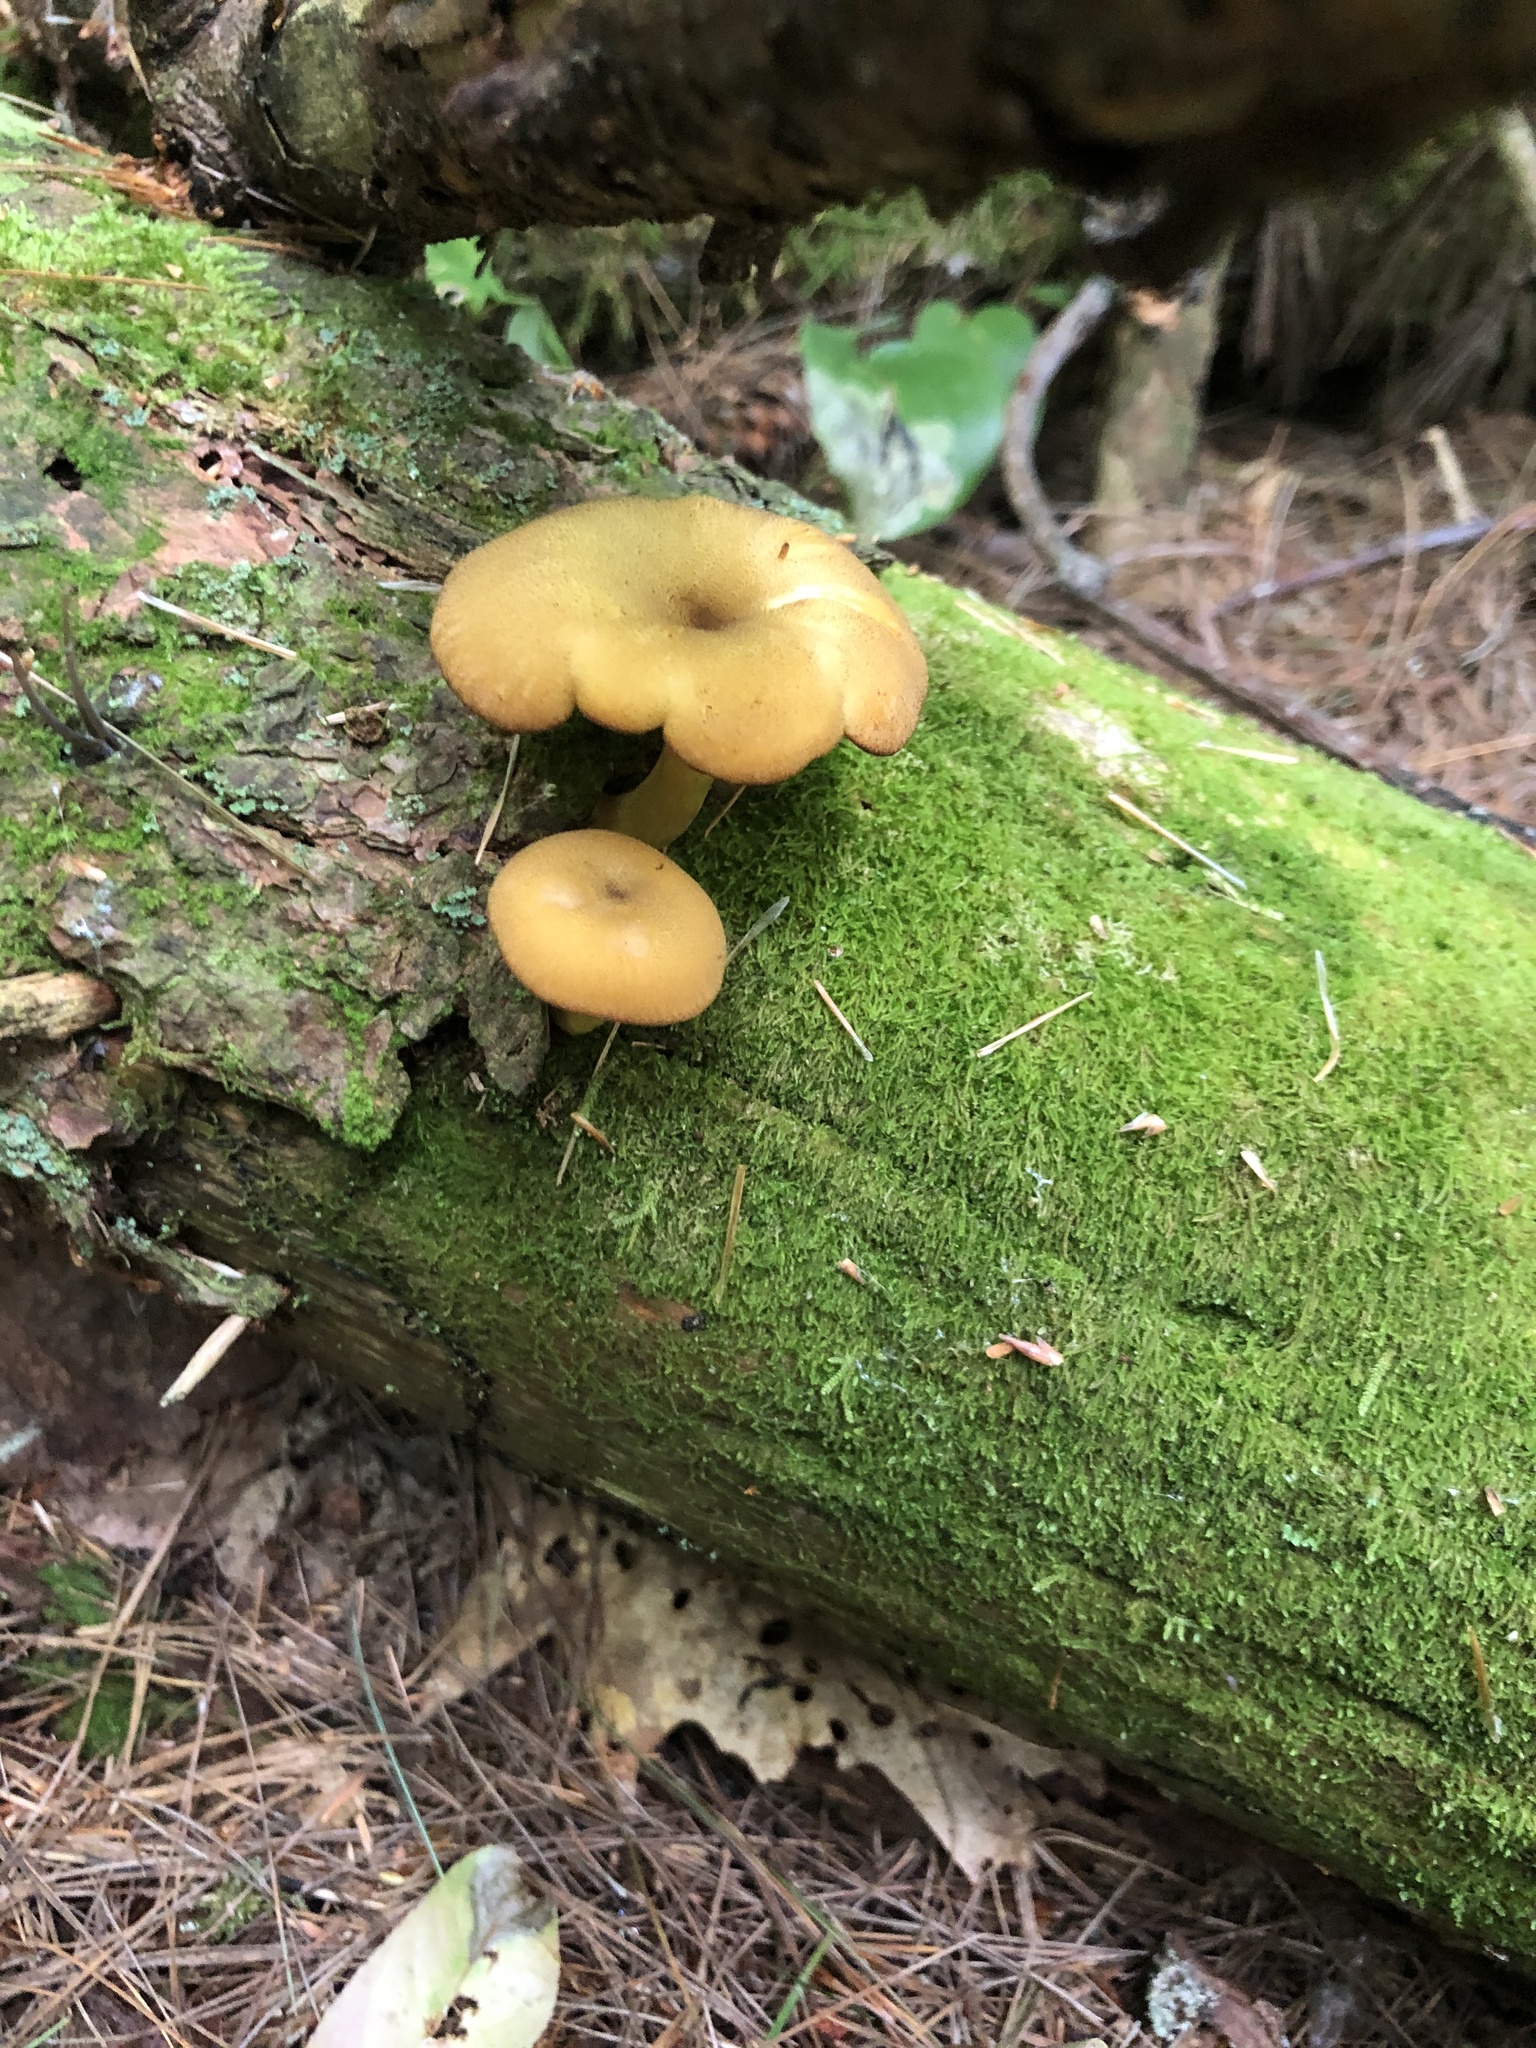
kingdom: Fungi
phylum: Basidiomycota
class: Agaricomycetes
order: Agaricales
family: Tricholomataceae
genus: Tricholomopsis
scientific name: Tricholomopsis decora
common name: Prunes and custard
